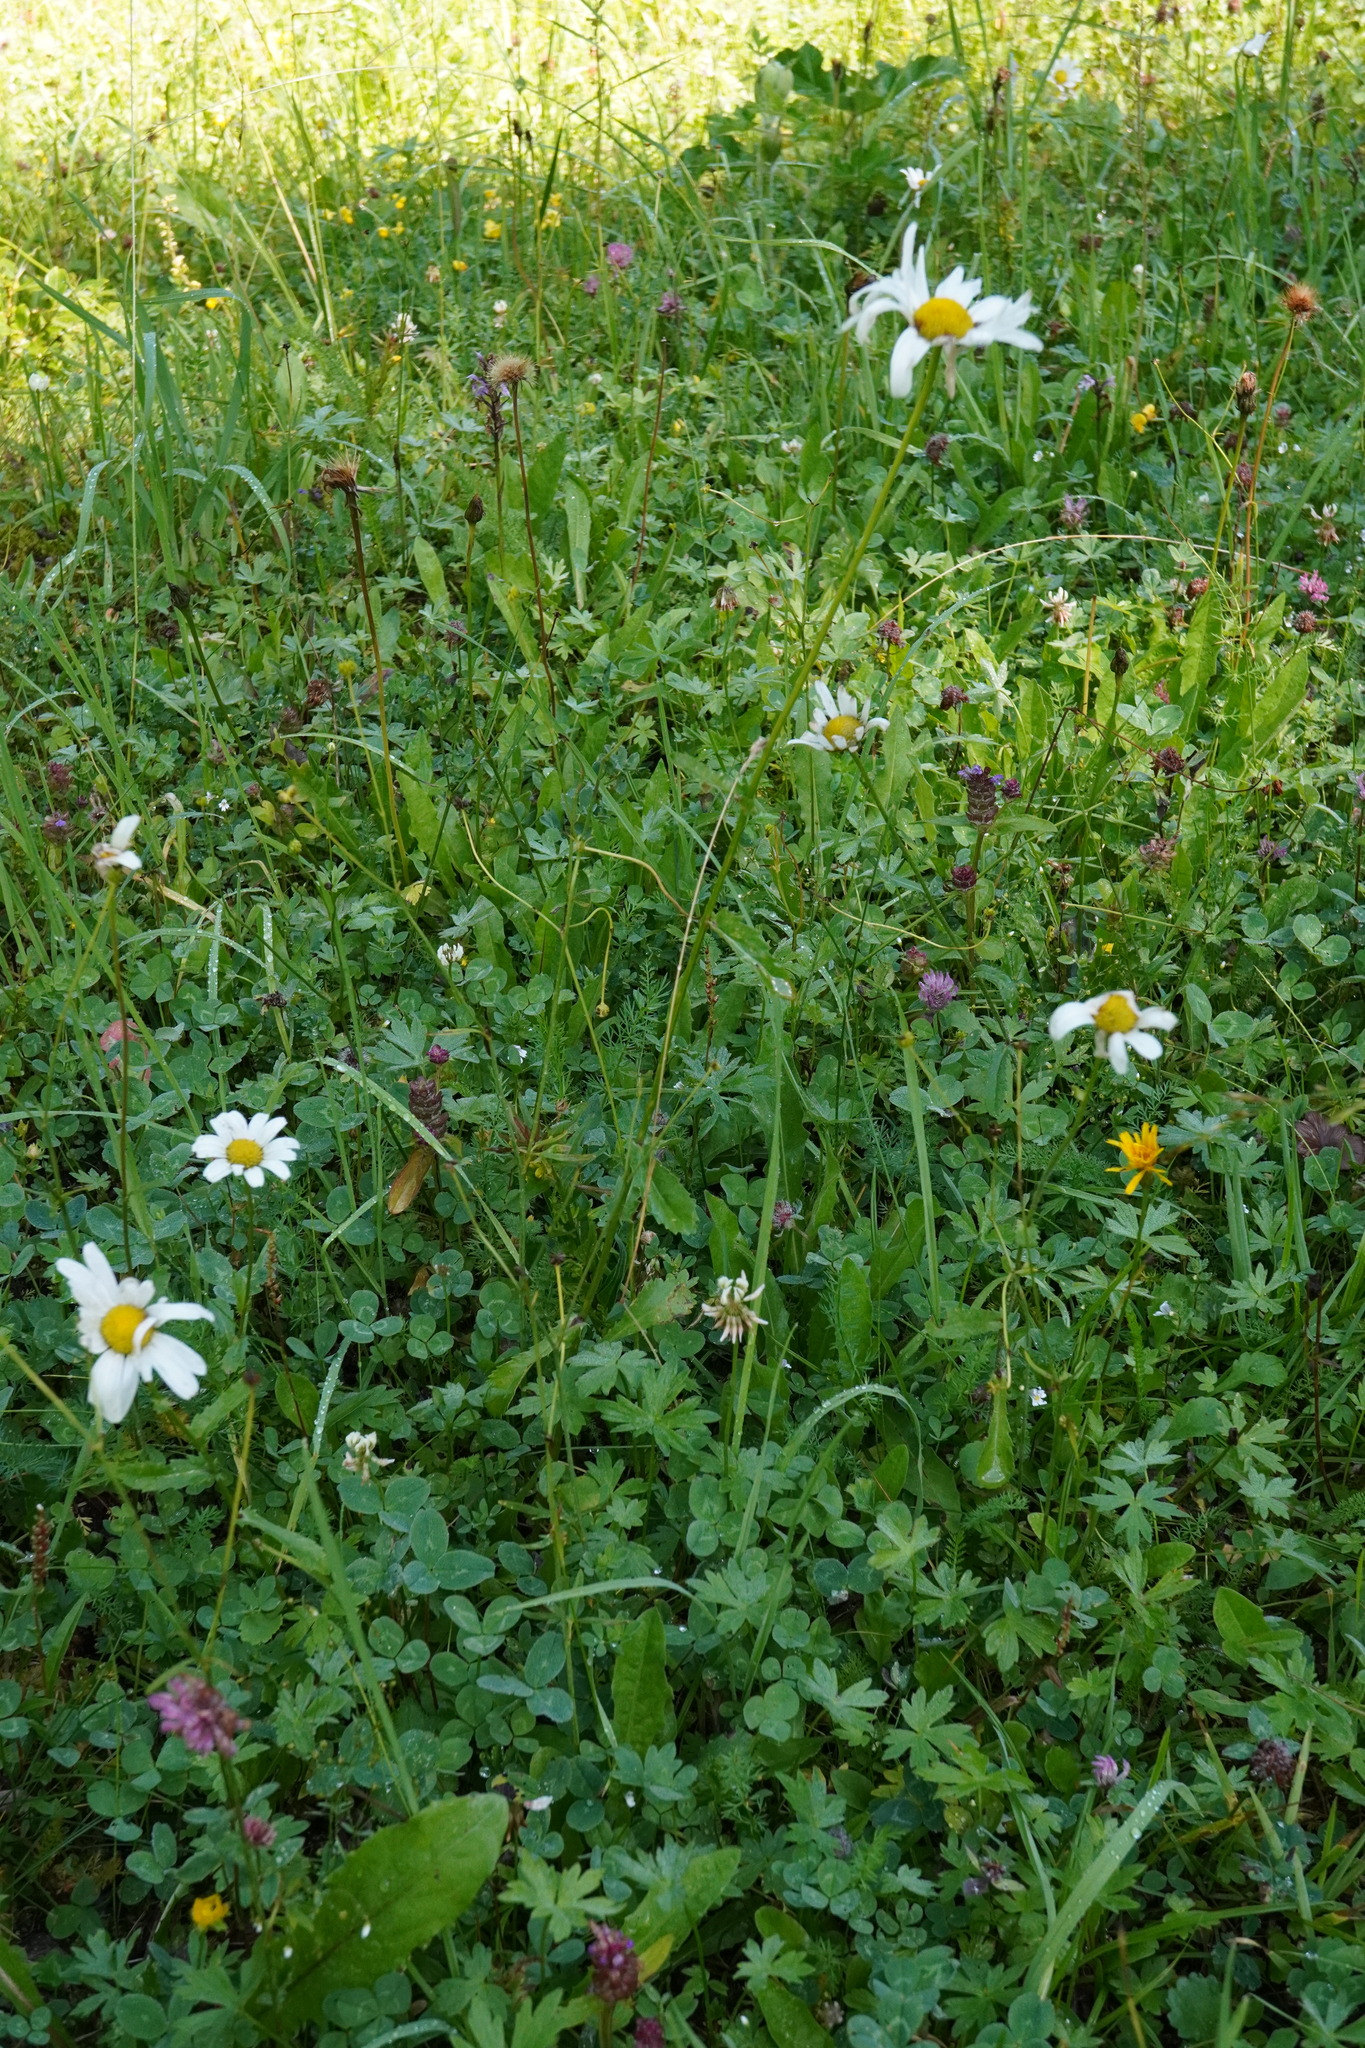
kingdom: Plantae
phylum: Tracheophyta
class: Magnoliopsida
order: Asterales
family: Asteraceae
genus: Leucanthemum
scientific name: Leucanthemum ircutianum
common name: Daisy
